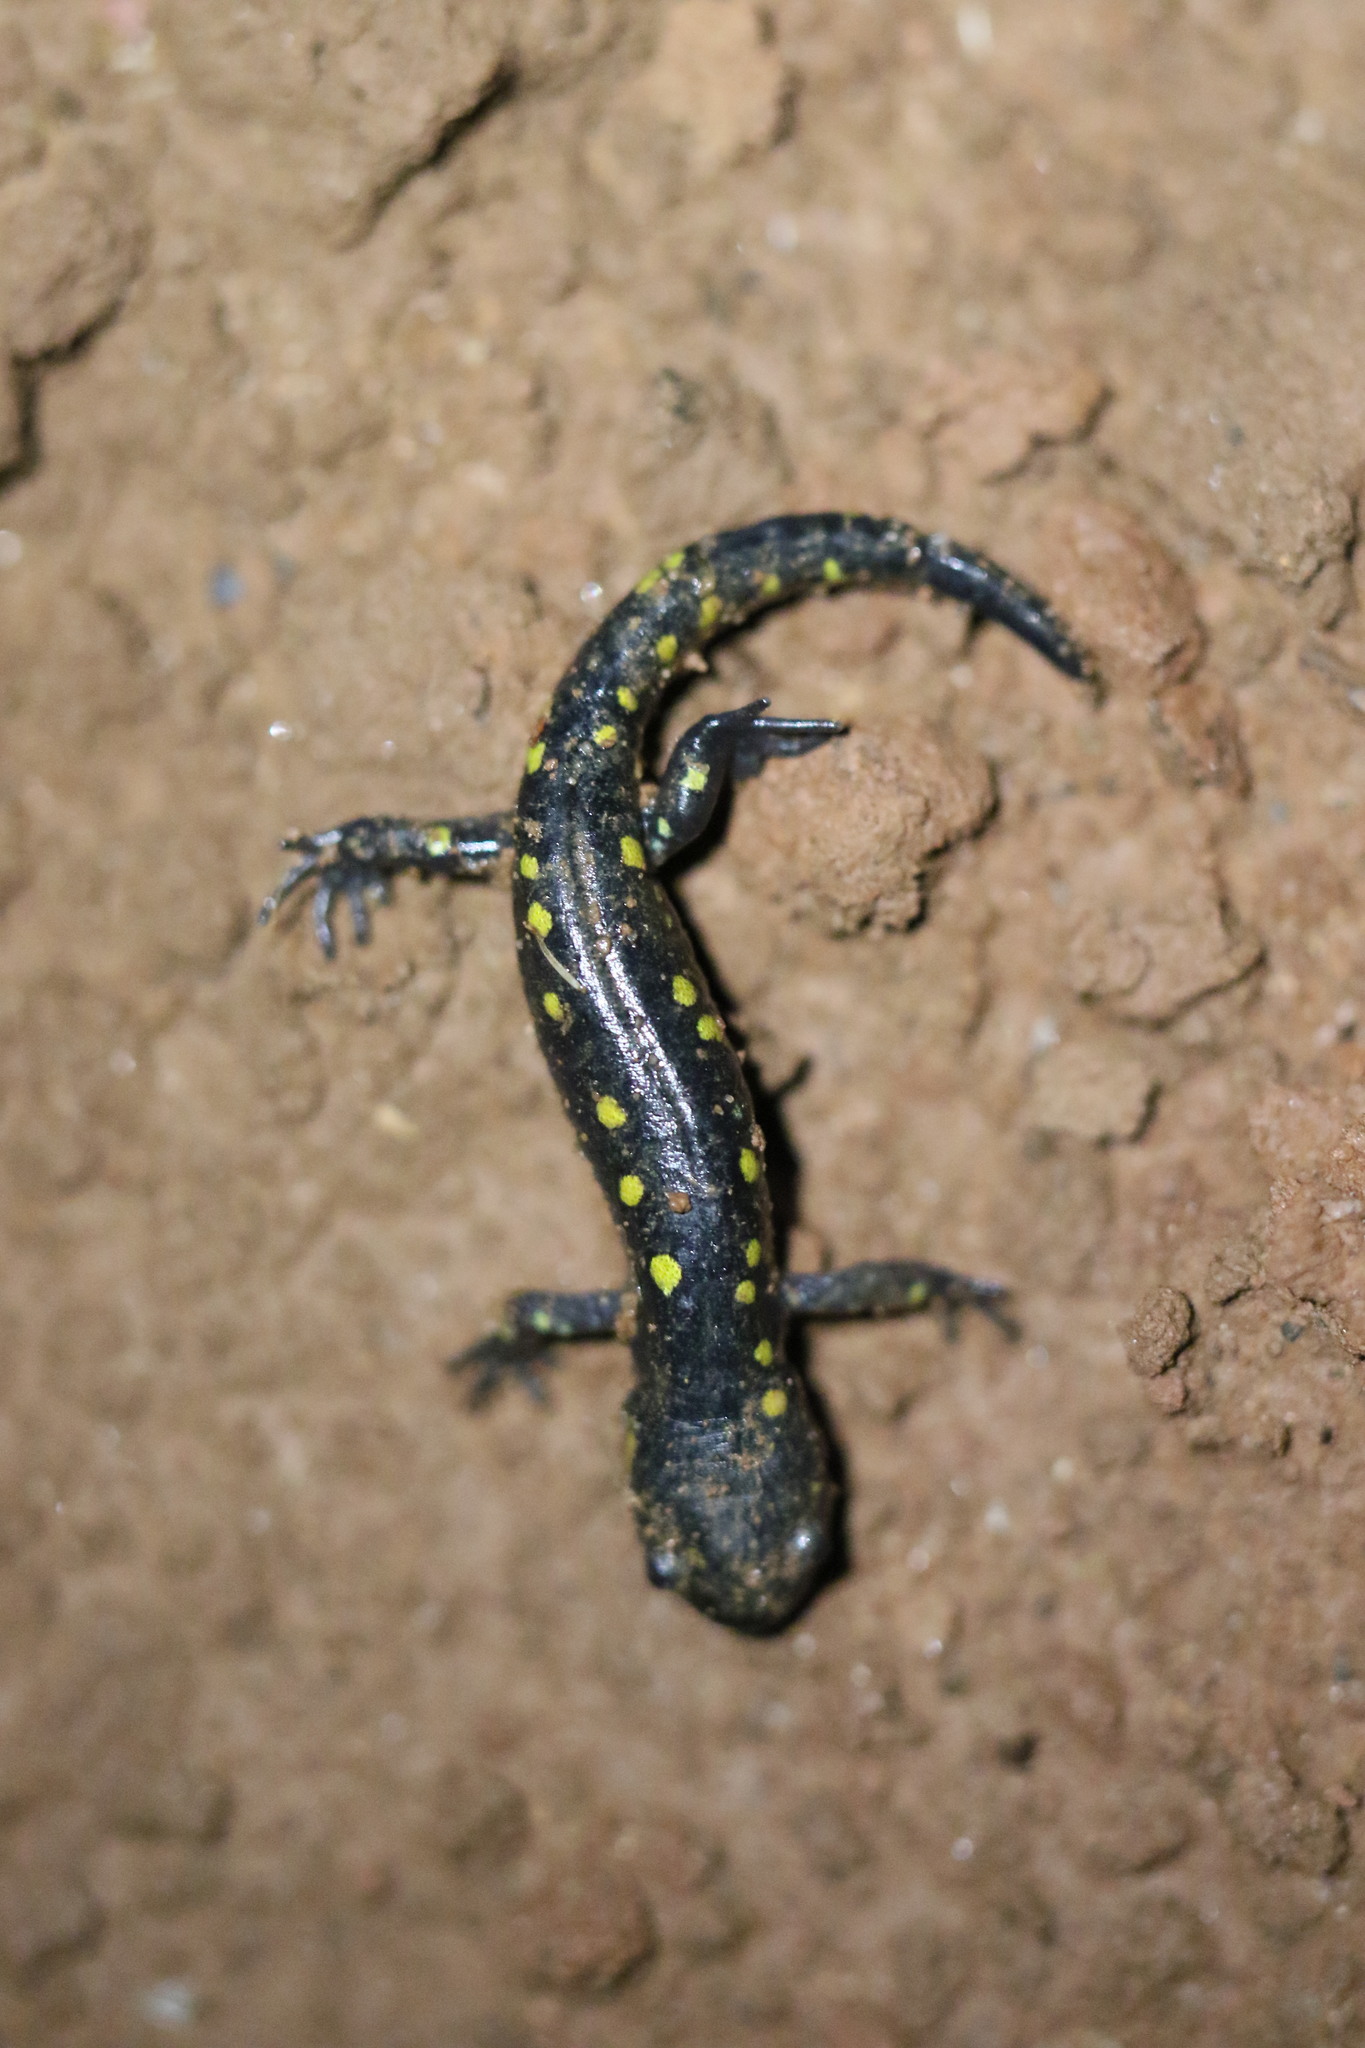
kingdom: Animalia
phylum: Chordata
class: Amphibia
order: Caudata
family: Ambystomatidae
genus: Ambystoma
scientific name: Ambystoma maculatum
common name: Spotted salamander
